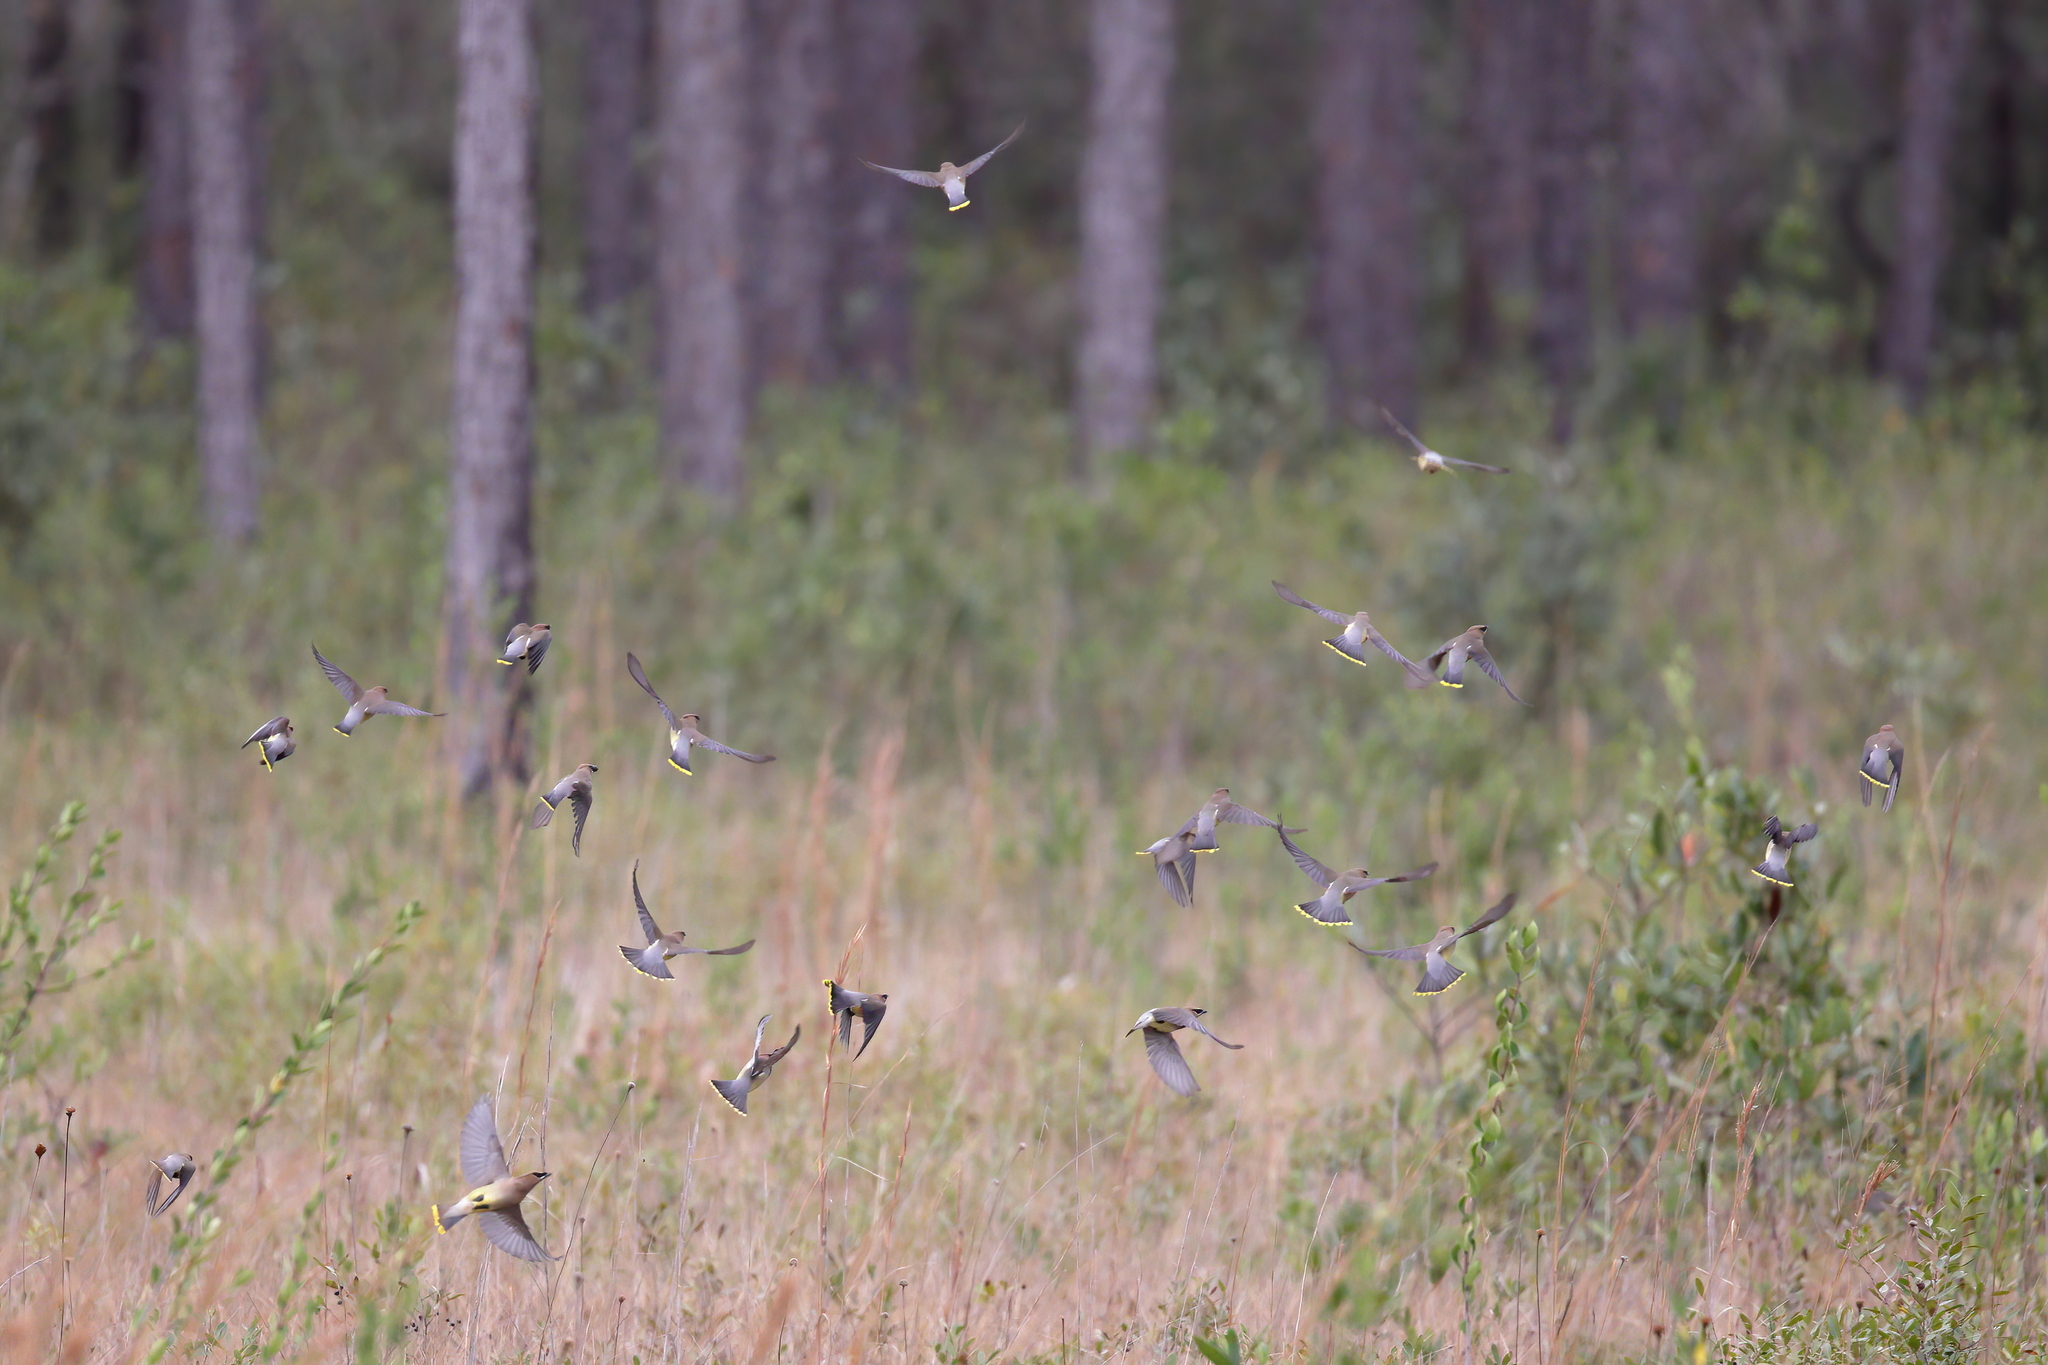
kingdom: Animalia
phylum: Chordata
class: Aves
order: Passeriformes
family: Bombycillidae
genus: Bombycilla
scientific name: Bombycilla cedrorum
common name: Cedar waxwing
